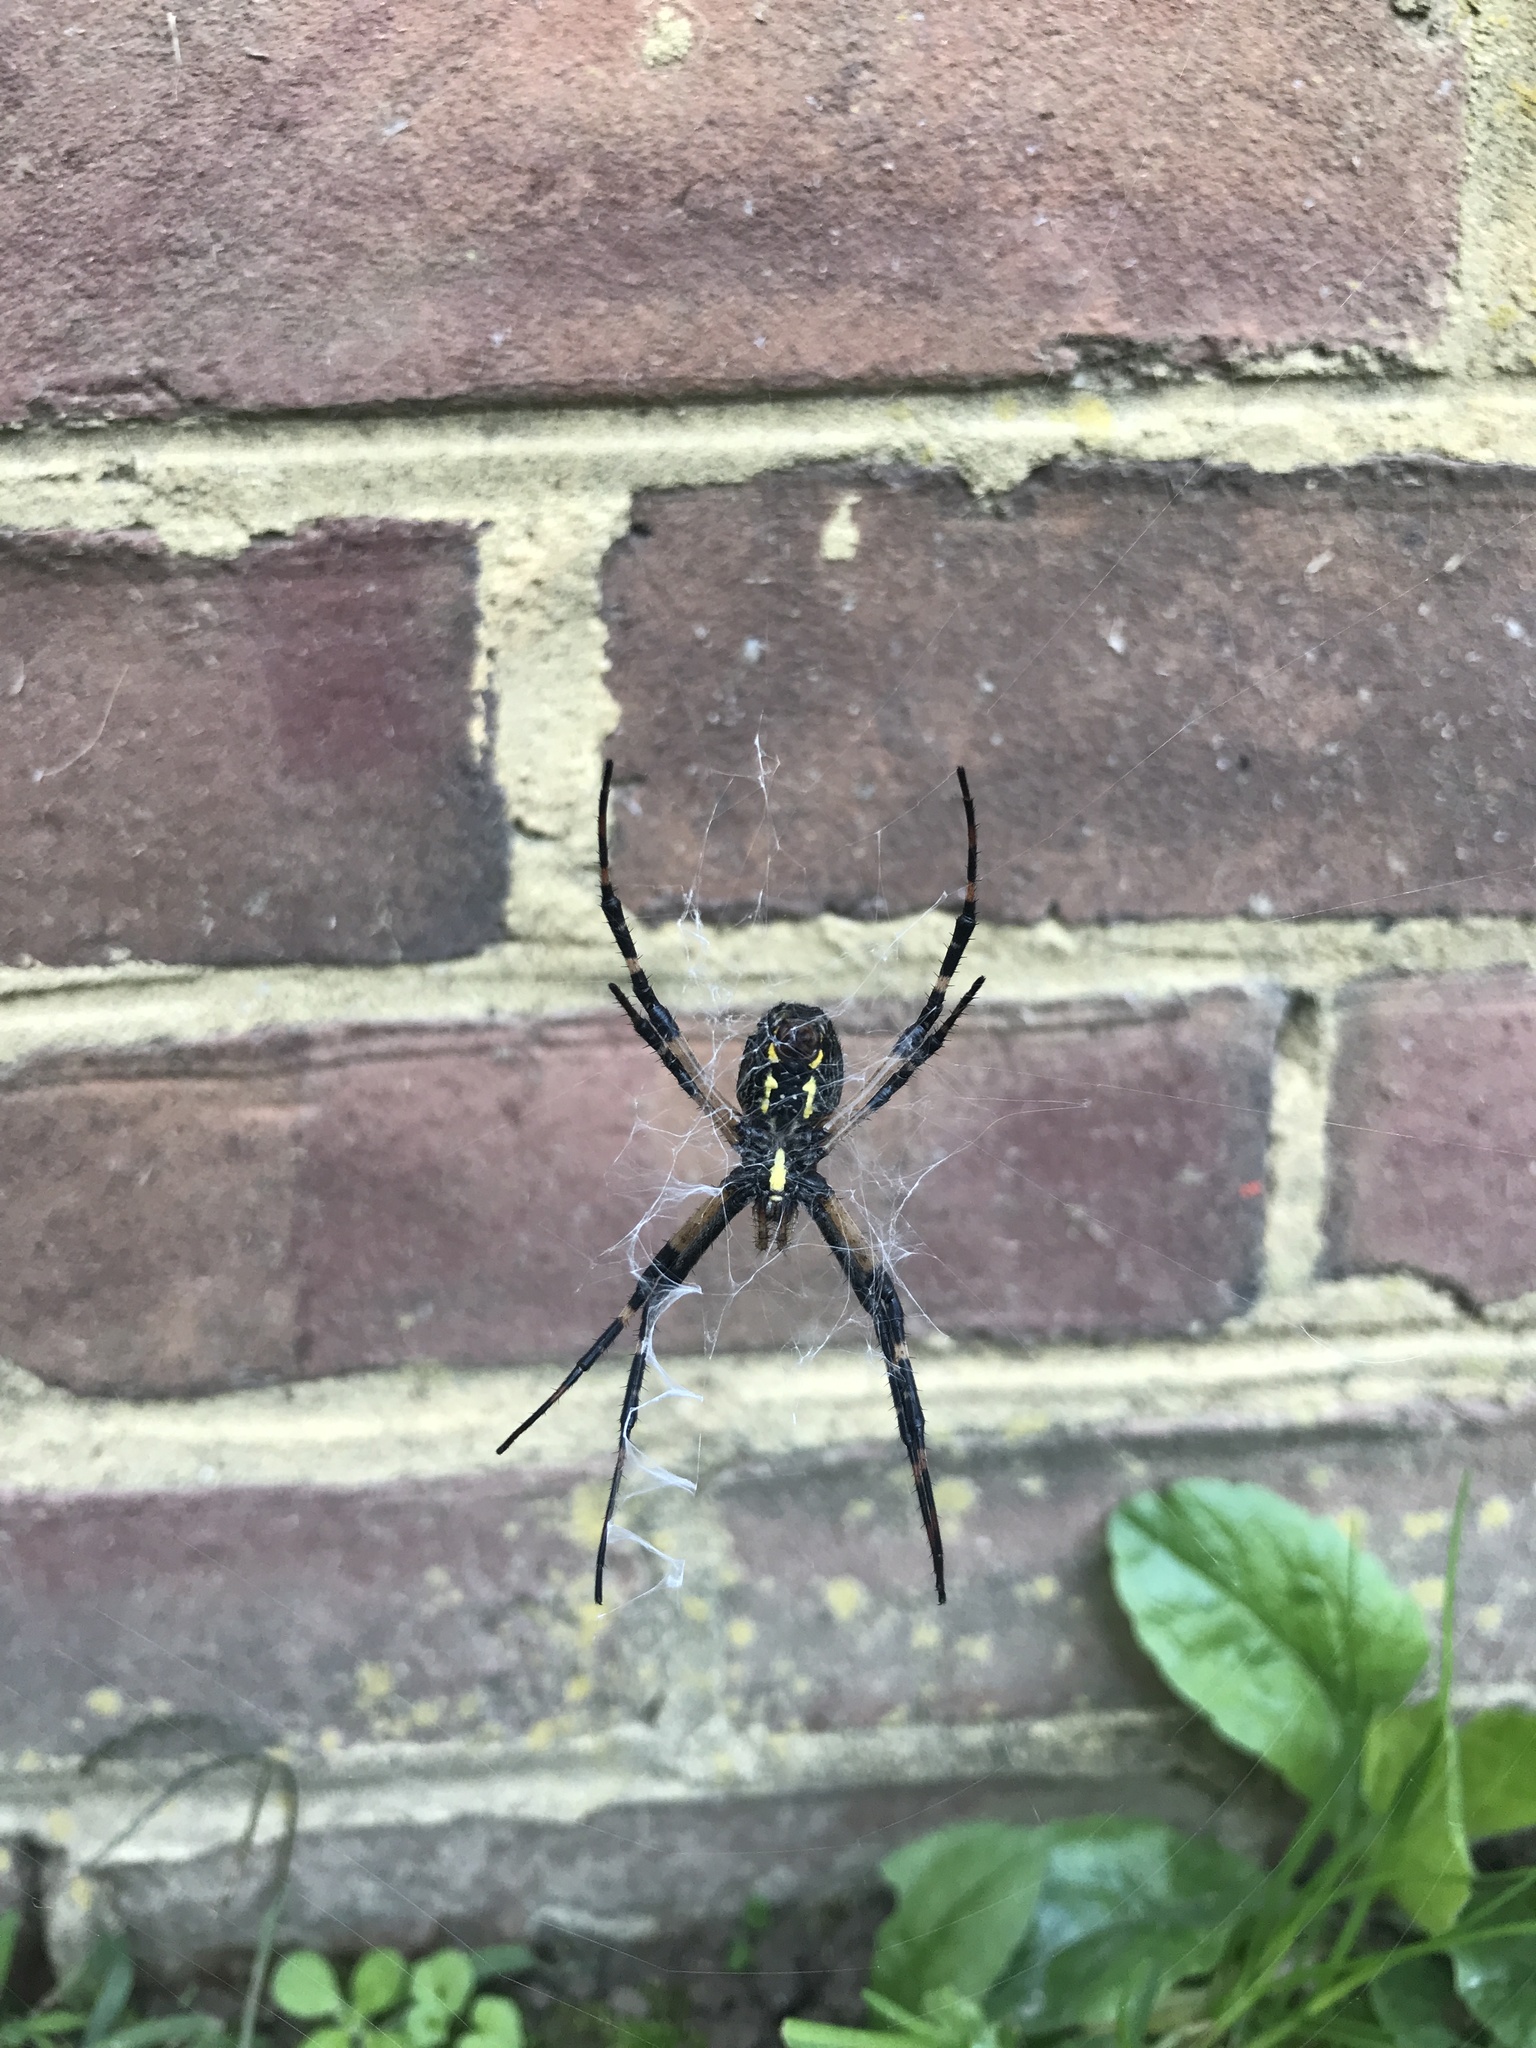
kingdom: Animalia
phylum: Arthropoda
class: Arachnida
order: Araneae
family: Araneidae
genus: Argiope
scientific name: Argiope aurantia
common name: Orb weavers
